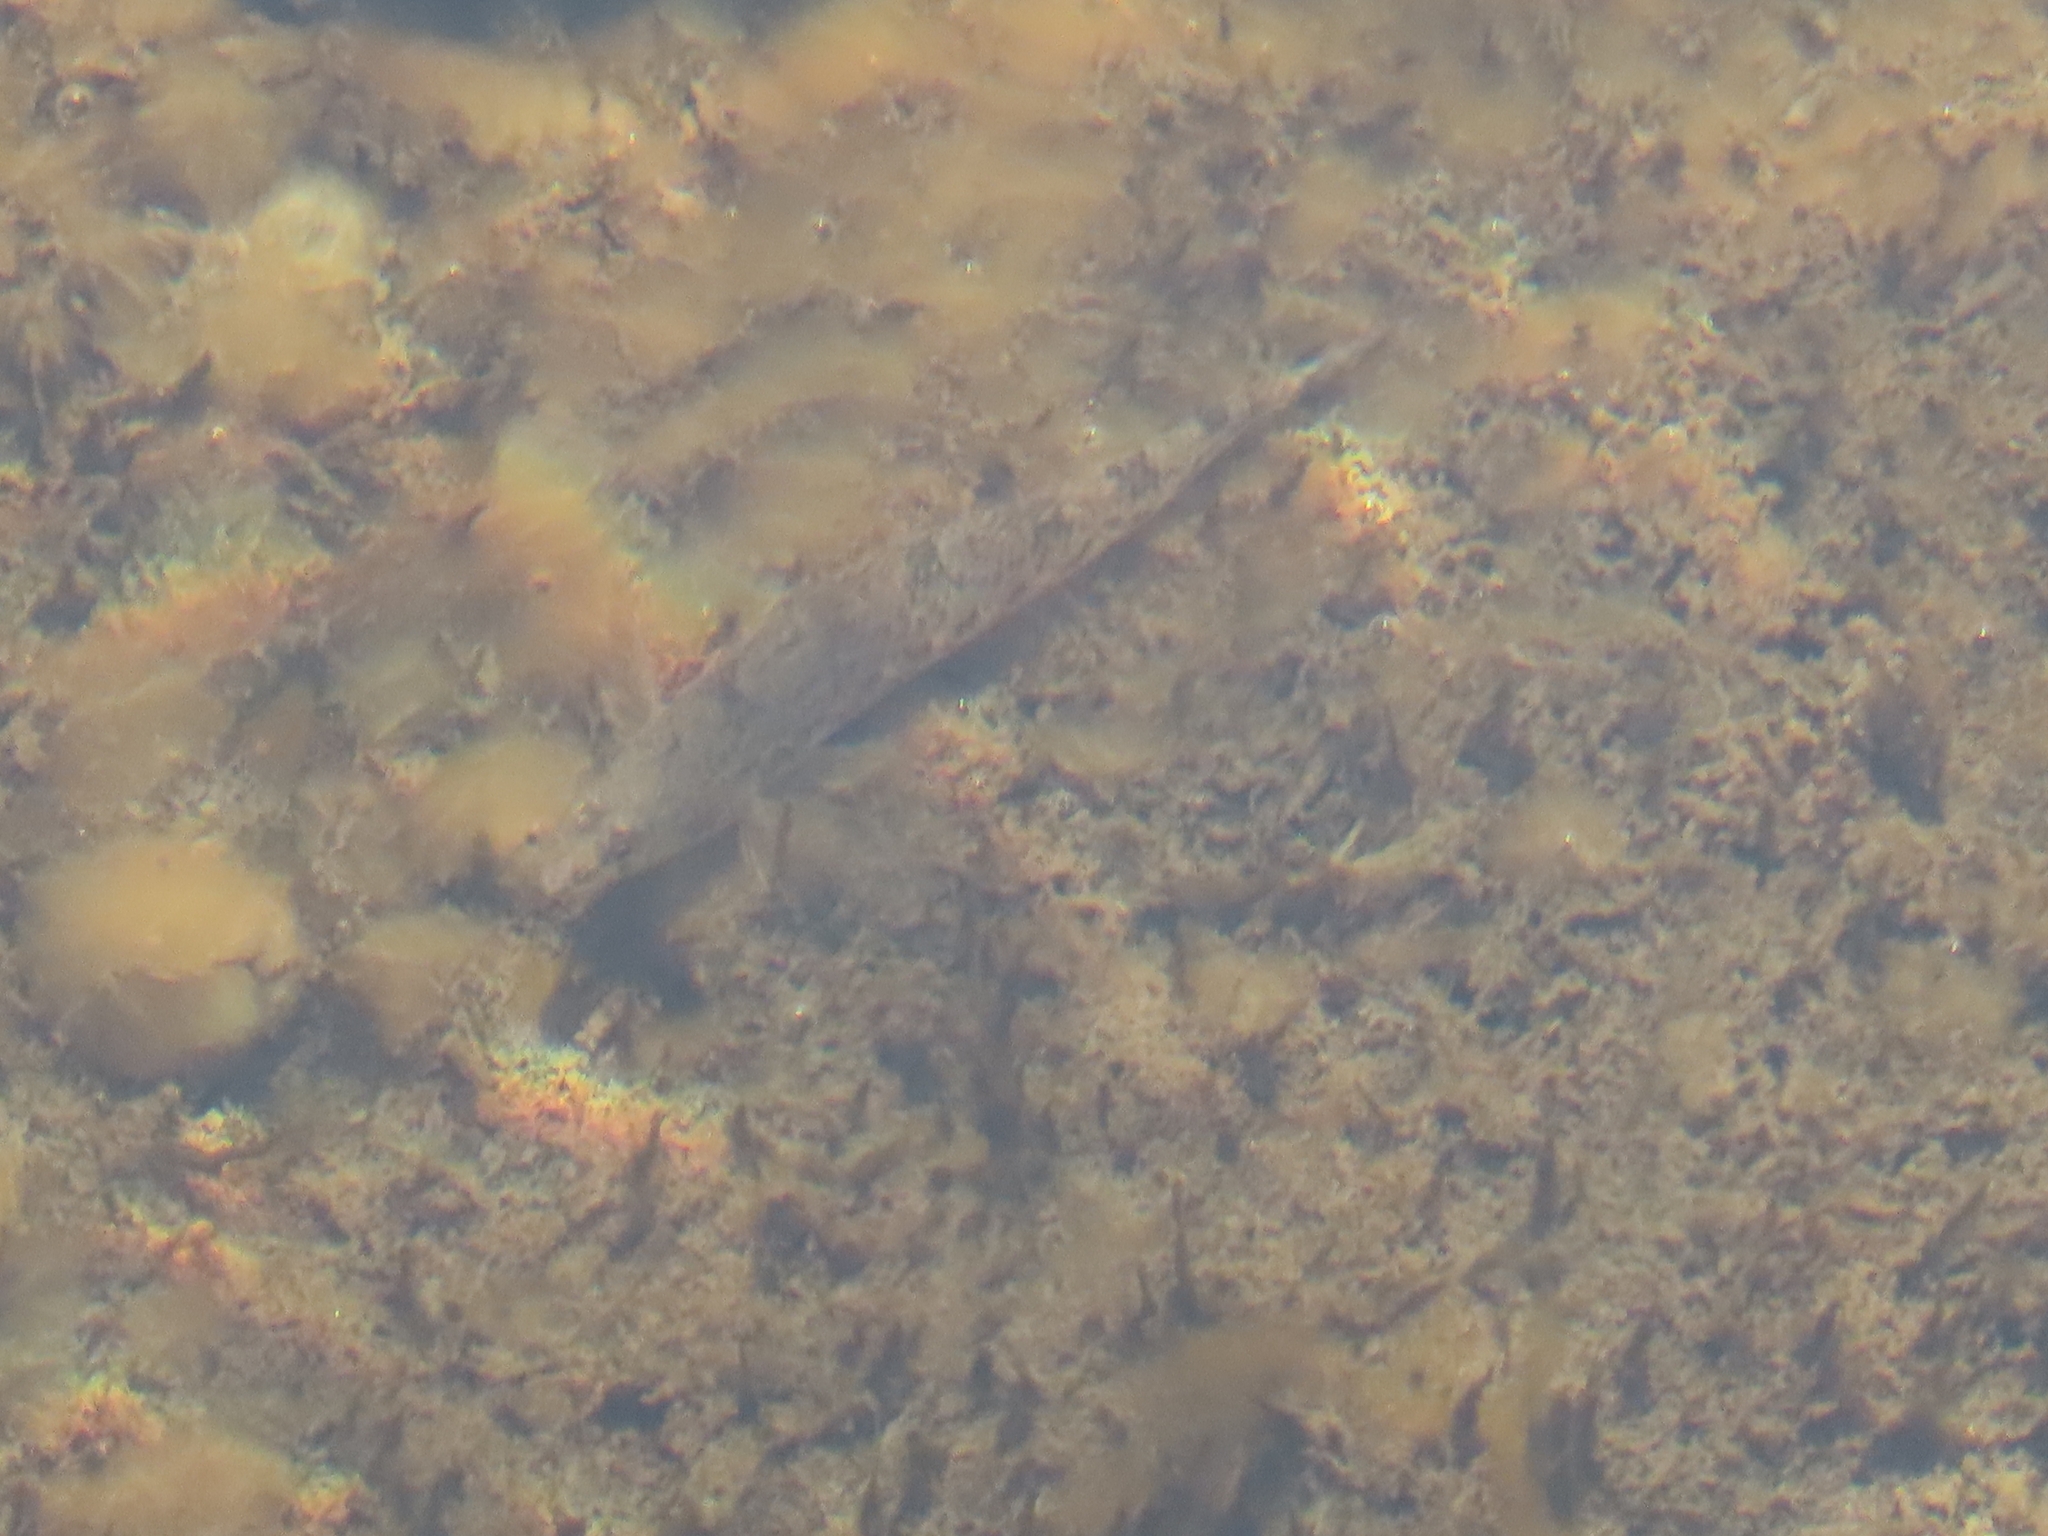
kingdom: Animalia
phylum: Chordata
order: Perciformes
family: Percidae
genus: Etheostoma
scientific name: Etheostoma nigrum
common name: Johnny darter
